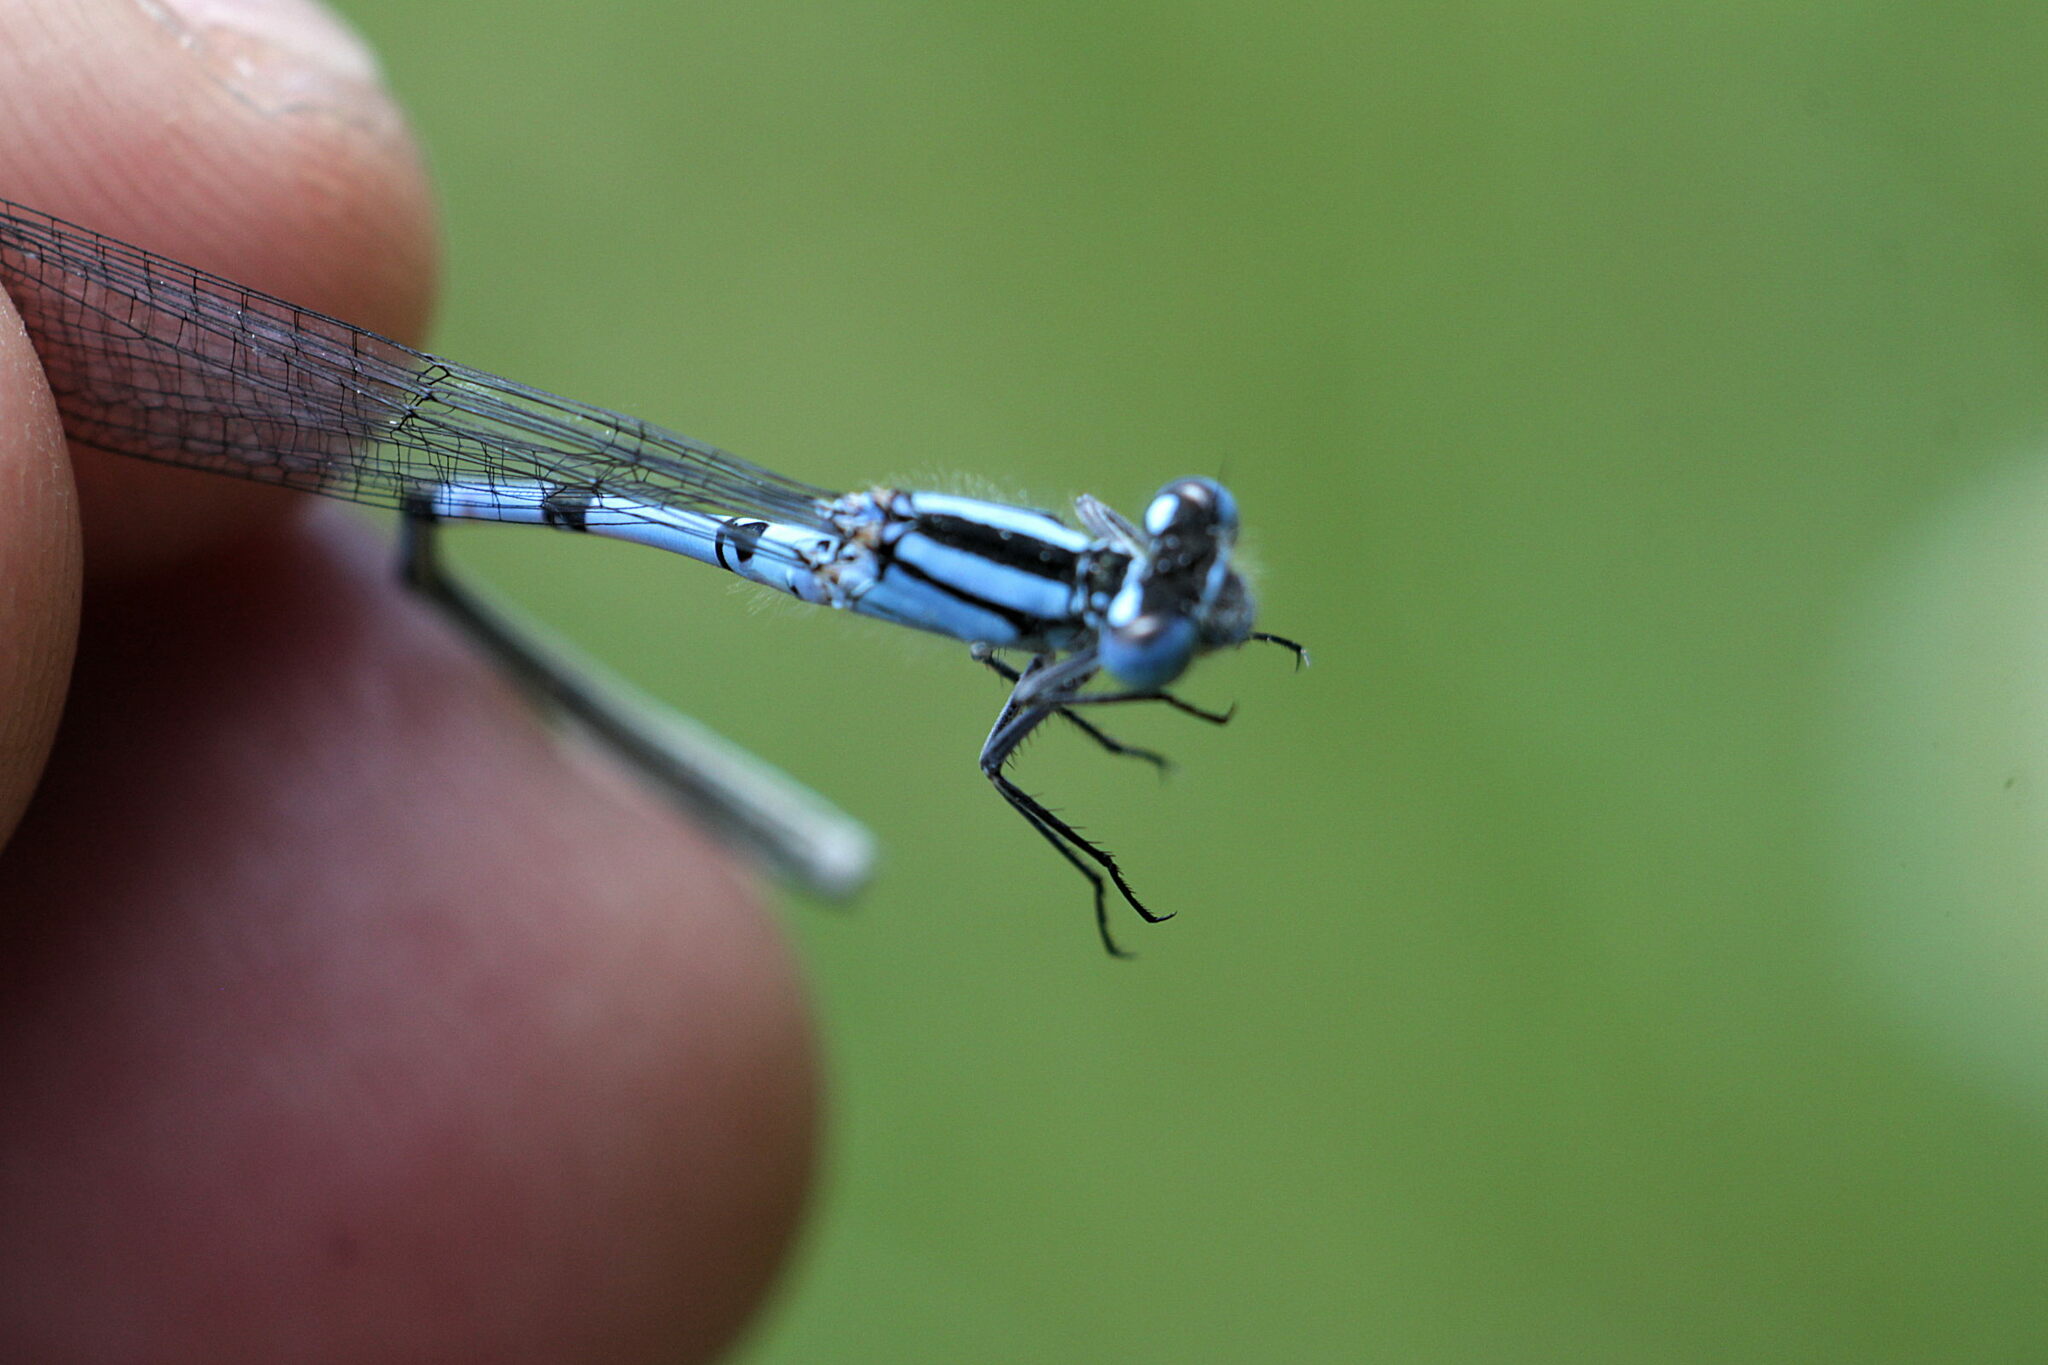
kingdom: Animalia
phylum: Arthropoda
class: Insecta
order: Odonata
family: Coenagrionidae
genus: Enallagma
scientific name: Enallagma cyathigerum
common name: Common blue damselfly
